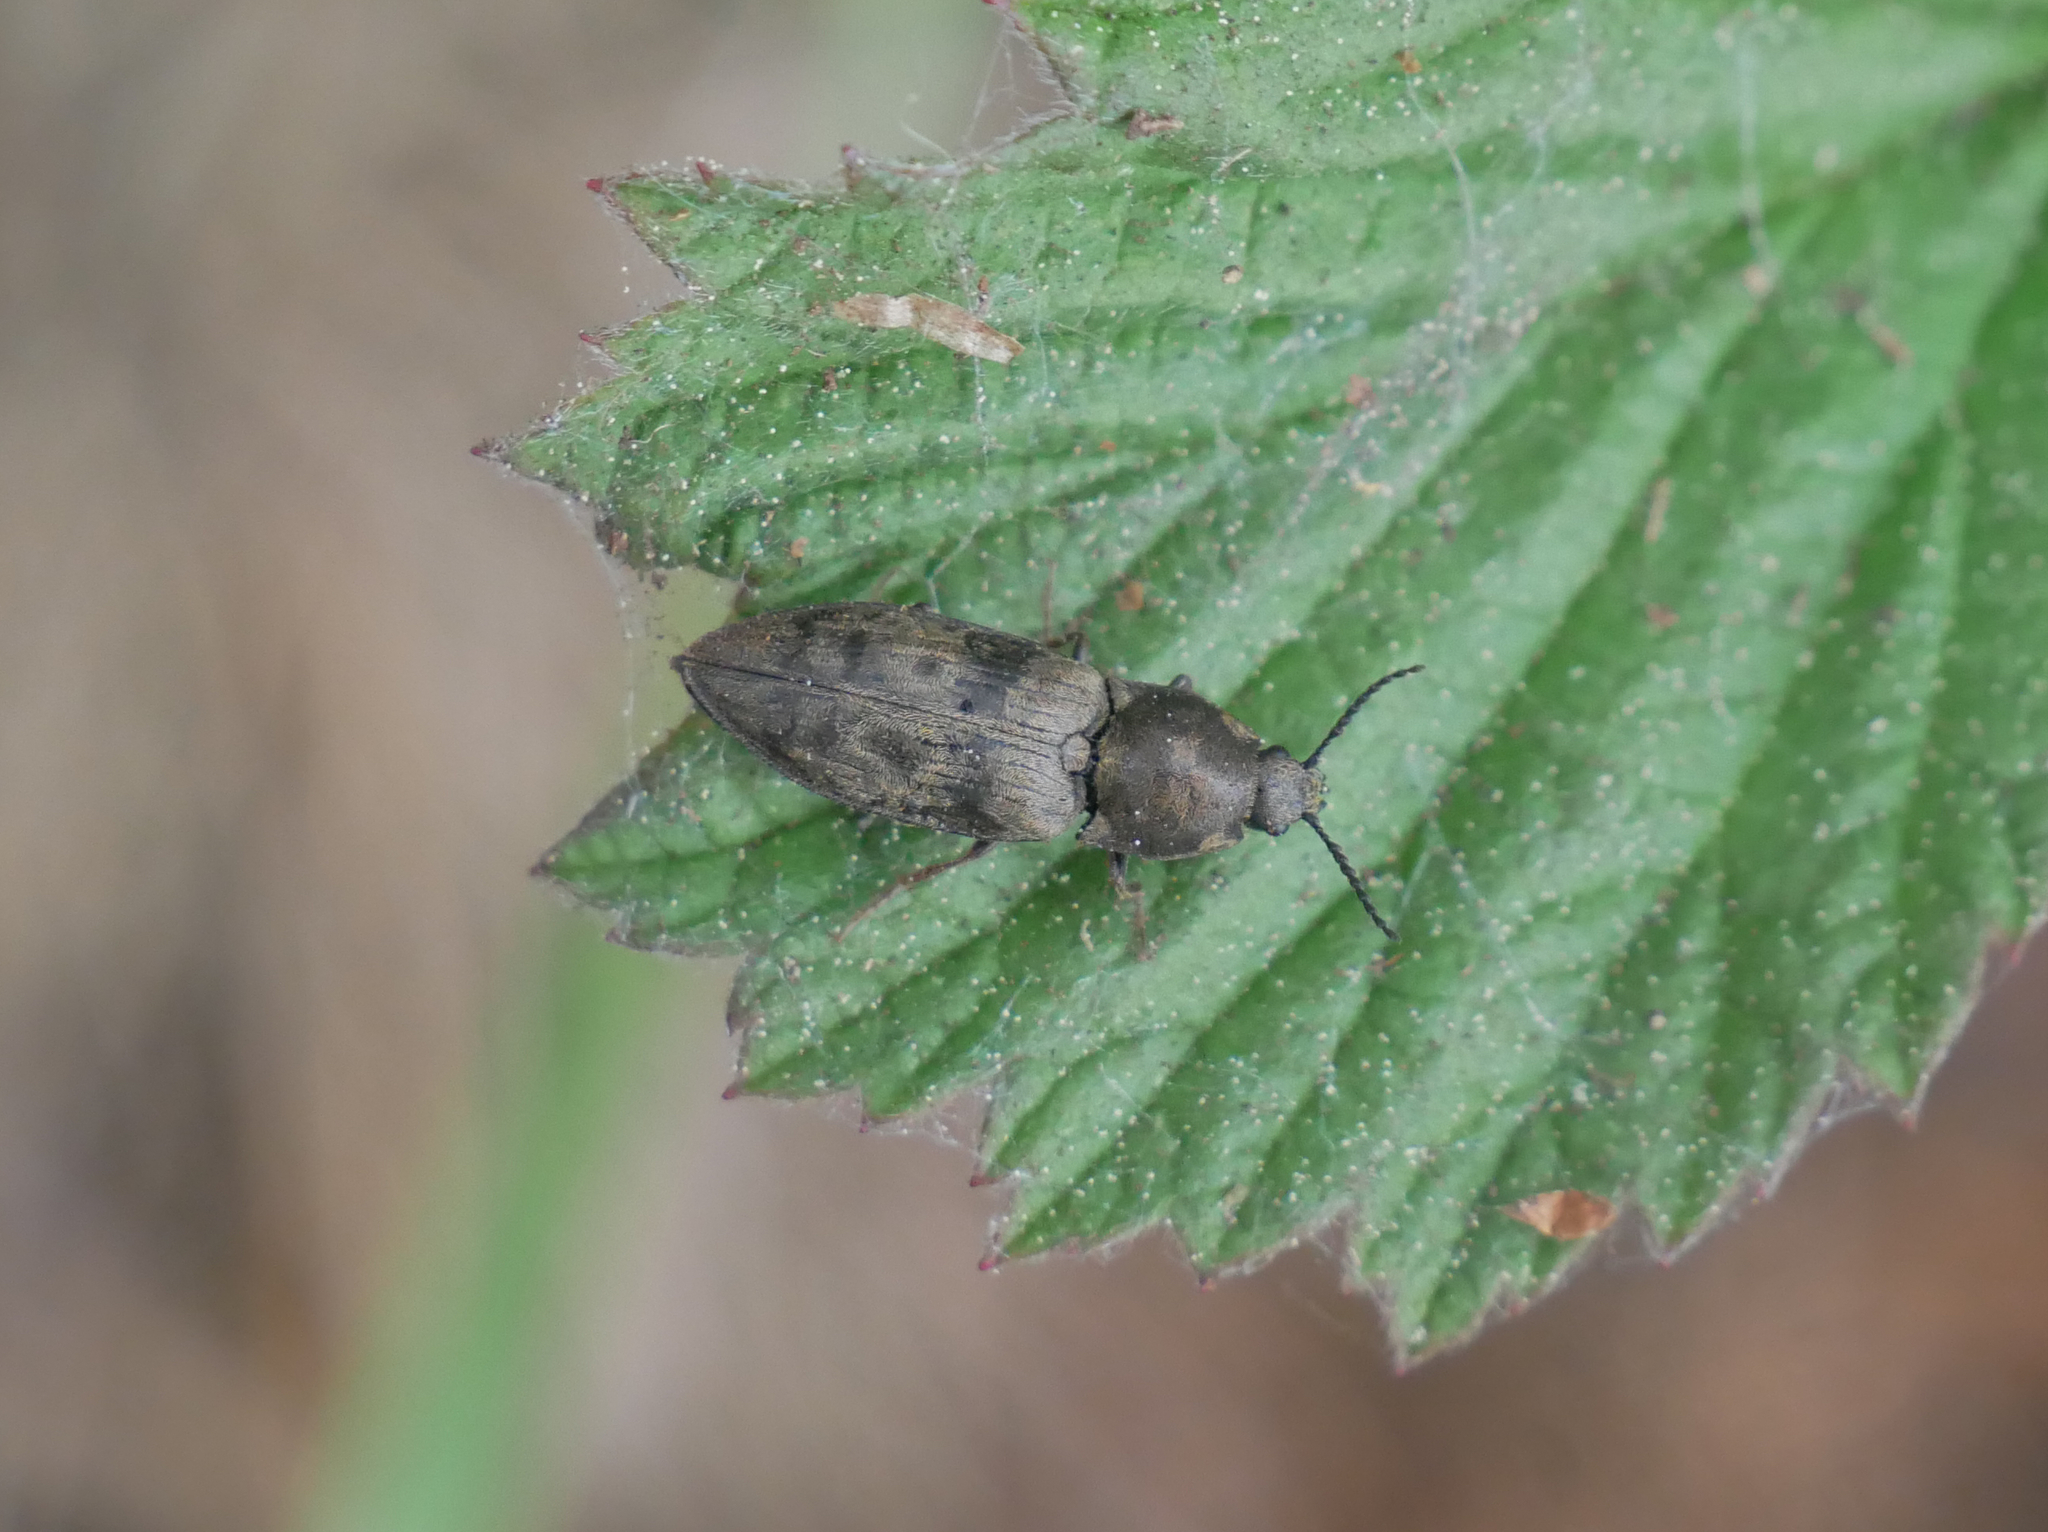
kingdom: Animalia
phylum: Arthropoda
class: Insecta
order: Coleoptera
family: Elateridae
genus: Prosternon
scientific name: Prosternon tessellatum
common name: Chequered click beetle
